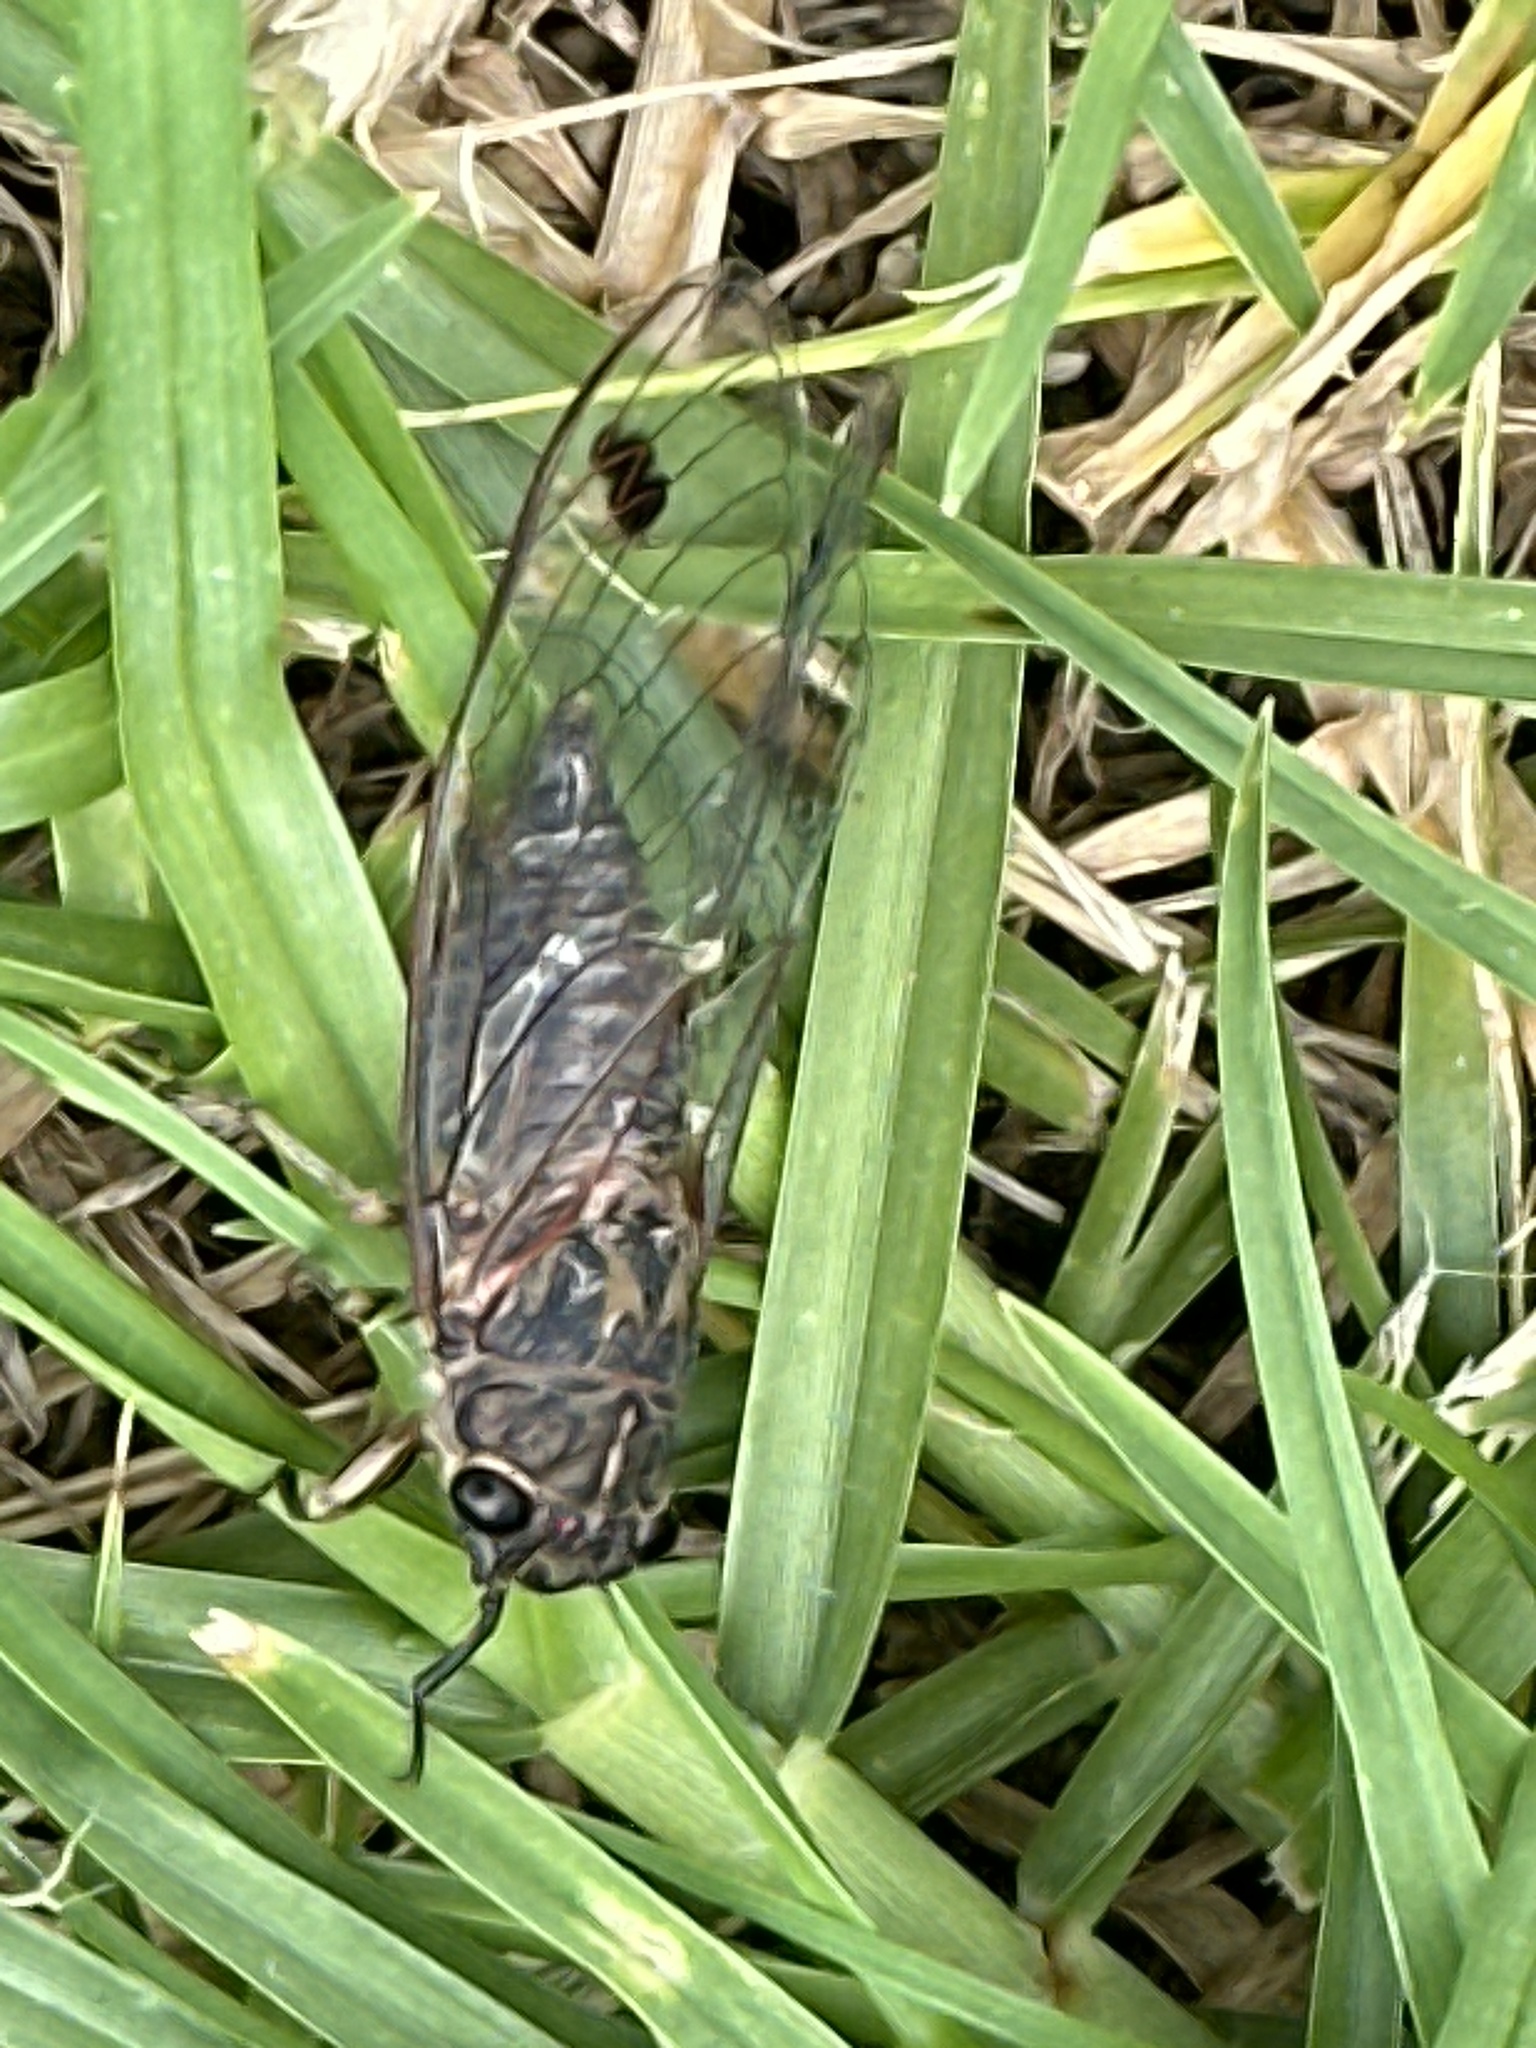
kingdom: Animalia
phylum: Arthropoda
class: Insecta
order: Hemiptera
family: Cicadidae
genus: Galanga
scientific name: Galanga labeculata
